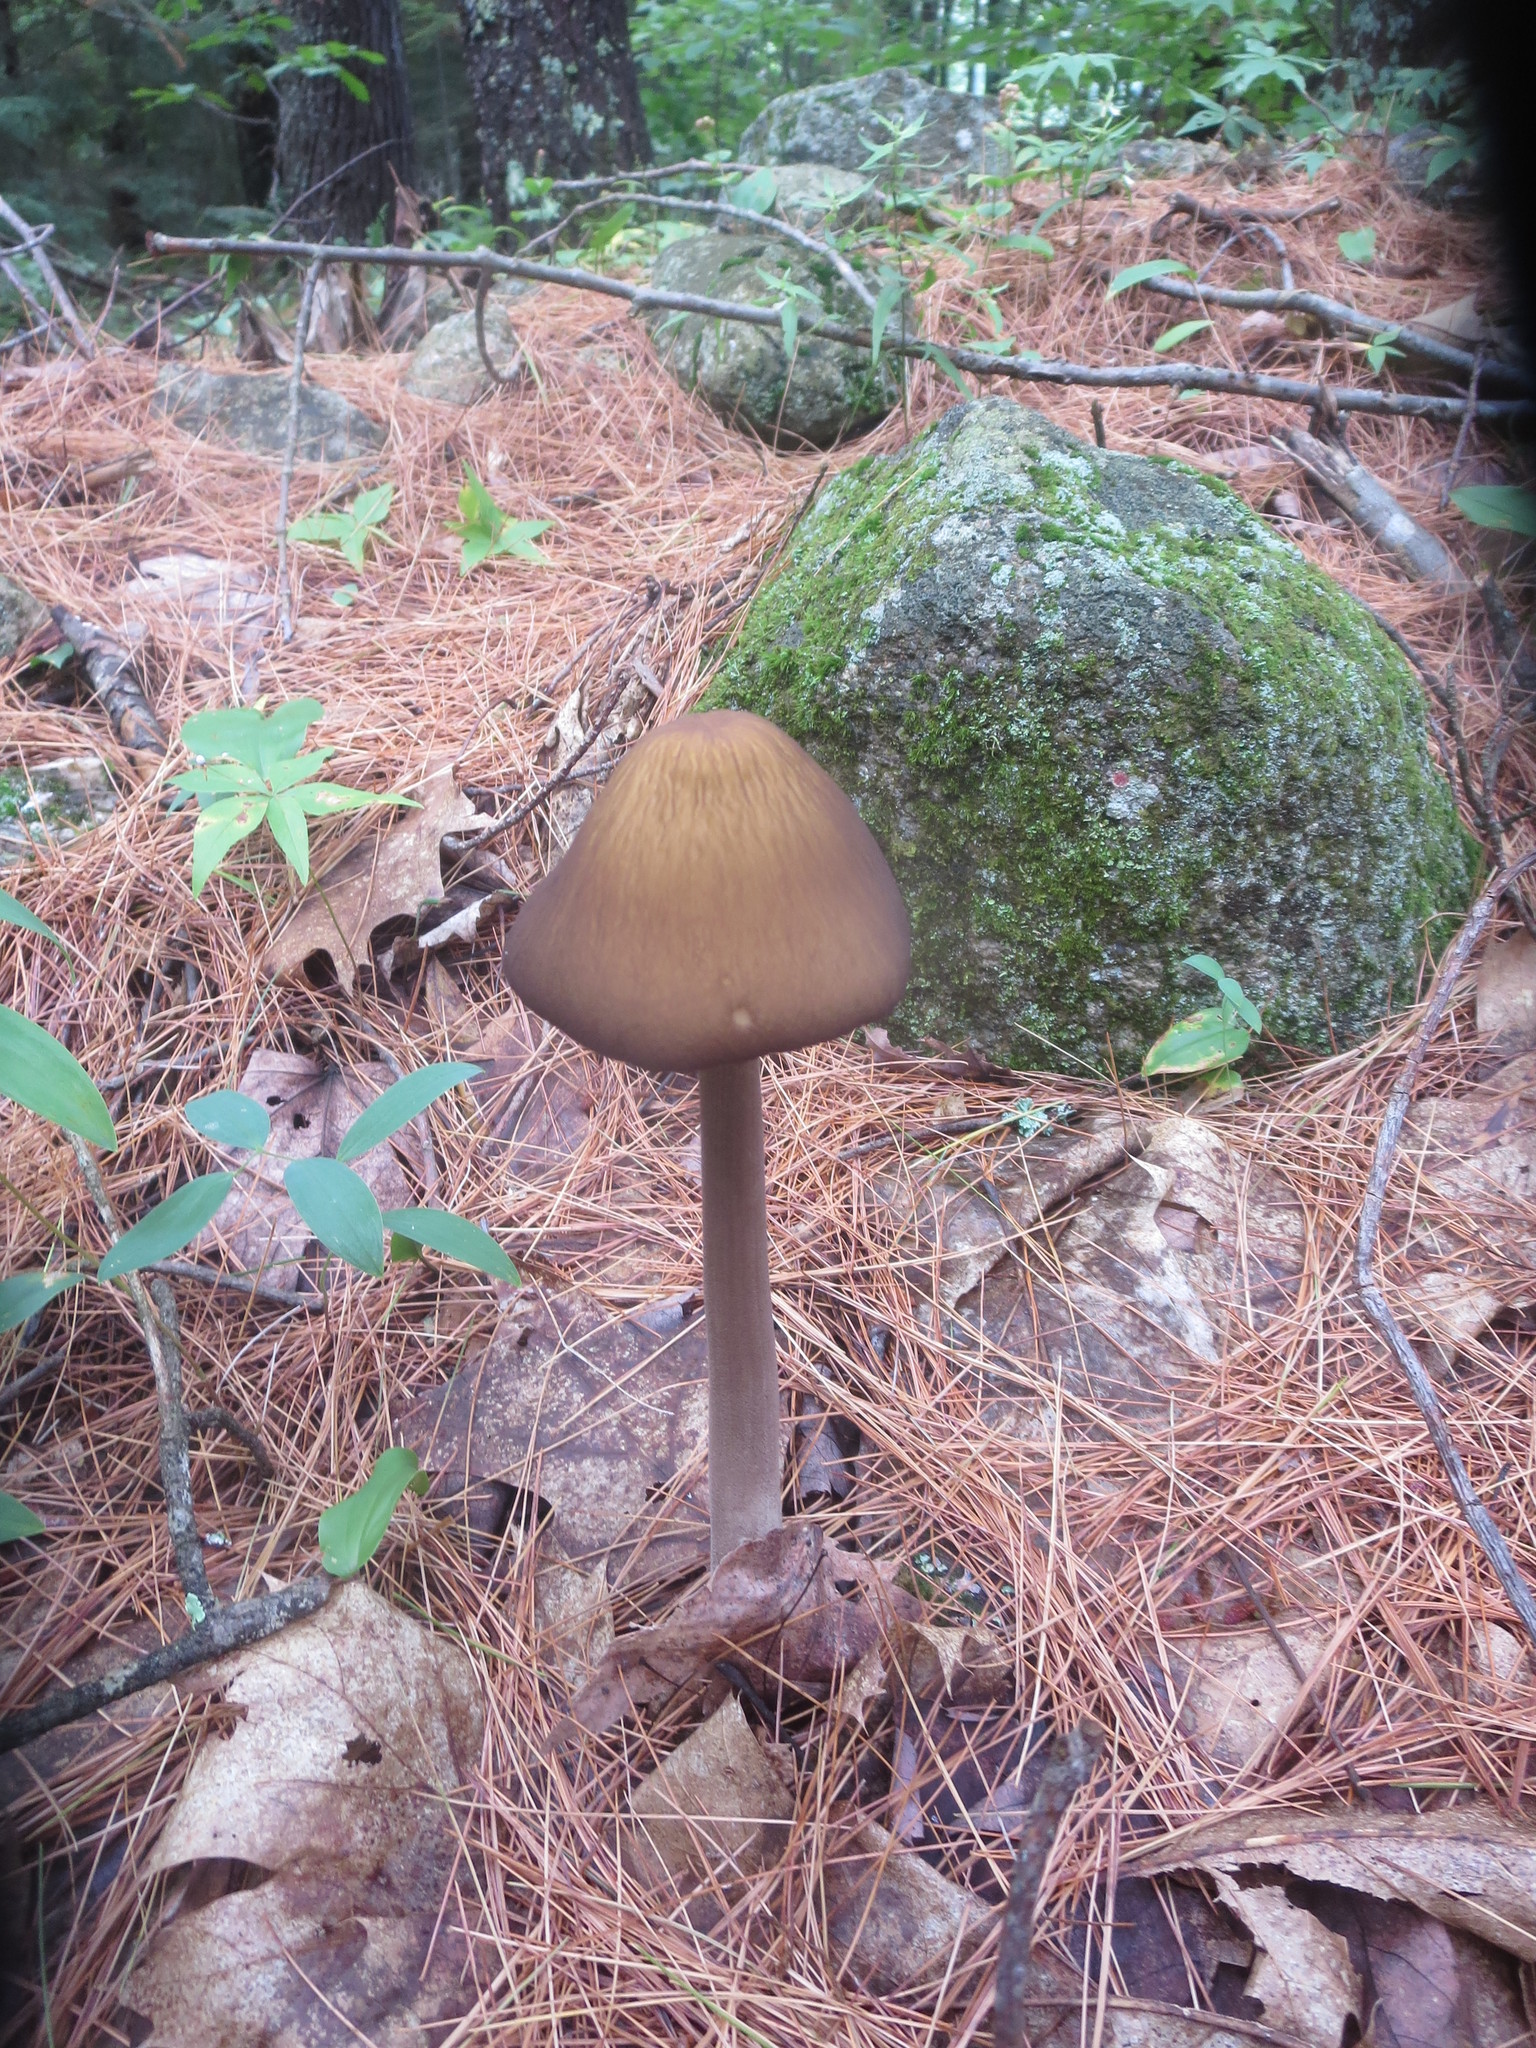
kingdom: Fungi
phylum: Basidiomycota
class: Agaricomycetes
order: Agaricales
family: Physalacriaceae
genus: Hymenopellis
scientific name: Hymenopellis furfuracea
